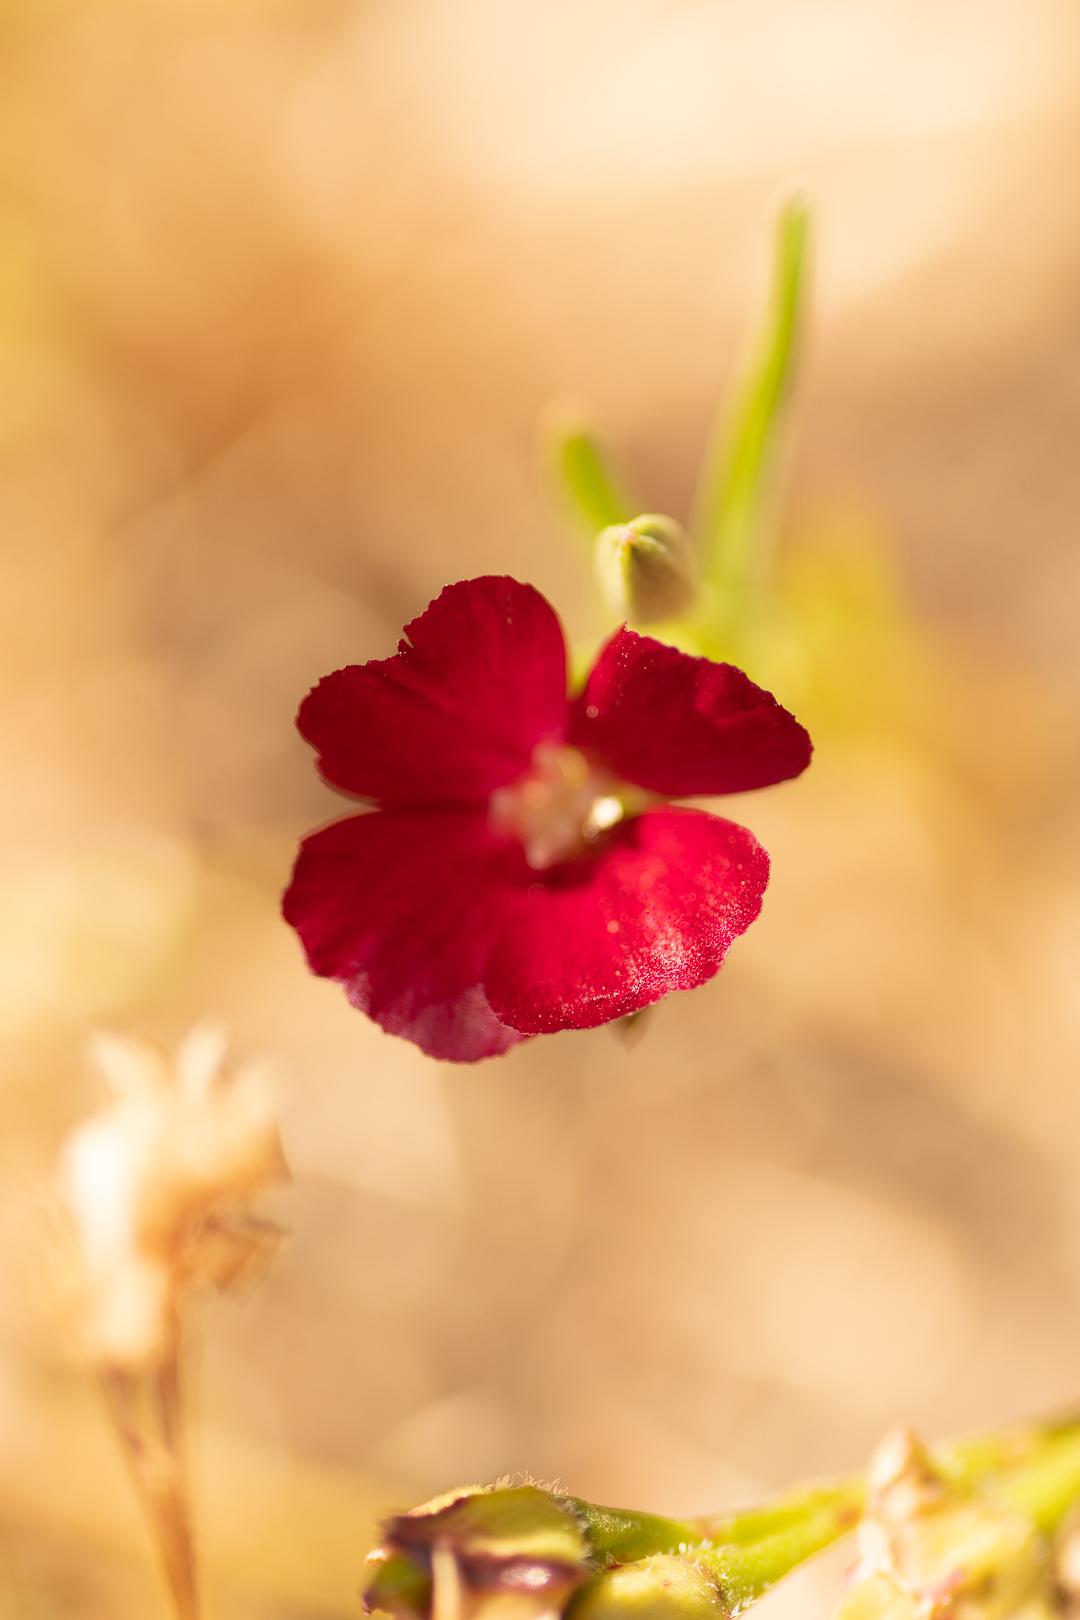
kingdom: Plantae
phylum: Tracheophyta
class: Magnoliopsida
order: Myrtales
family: Onagraceae
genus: Clarkia
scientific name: Clarkia tenella
